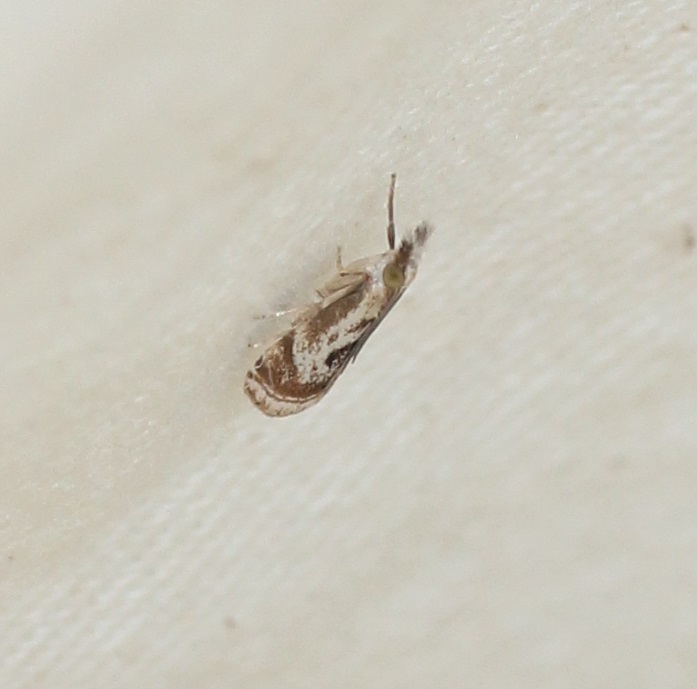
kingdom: Animalia
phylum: Arthropoda
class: Insecta
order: Lepidoptera
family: Crambidae
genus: Microcrambus
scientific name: Microcrambus elegans
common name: Elegant grass-veneer
